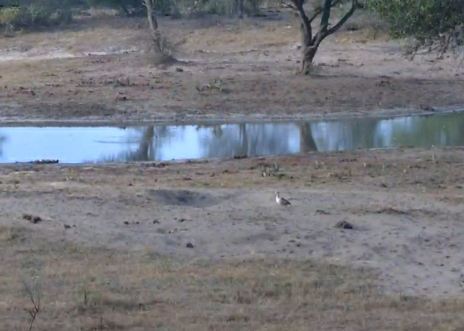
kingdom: Animalia
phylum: Chordata
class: Aves
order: Anseriformes
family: Anatidae
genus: Alopochen
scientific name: Alopochen aegyptiaca
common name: Egyptian goose
